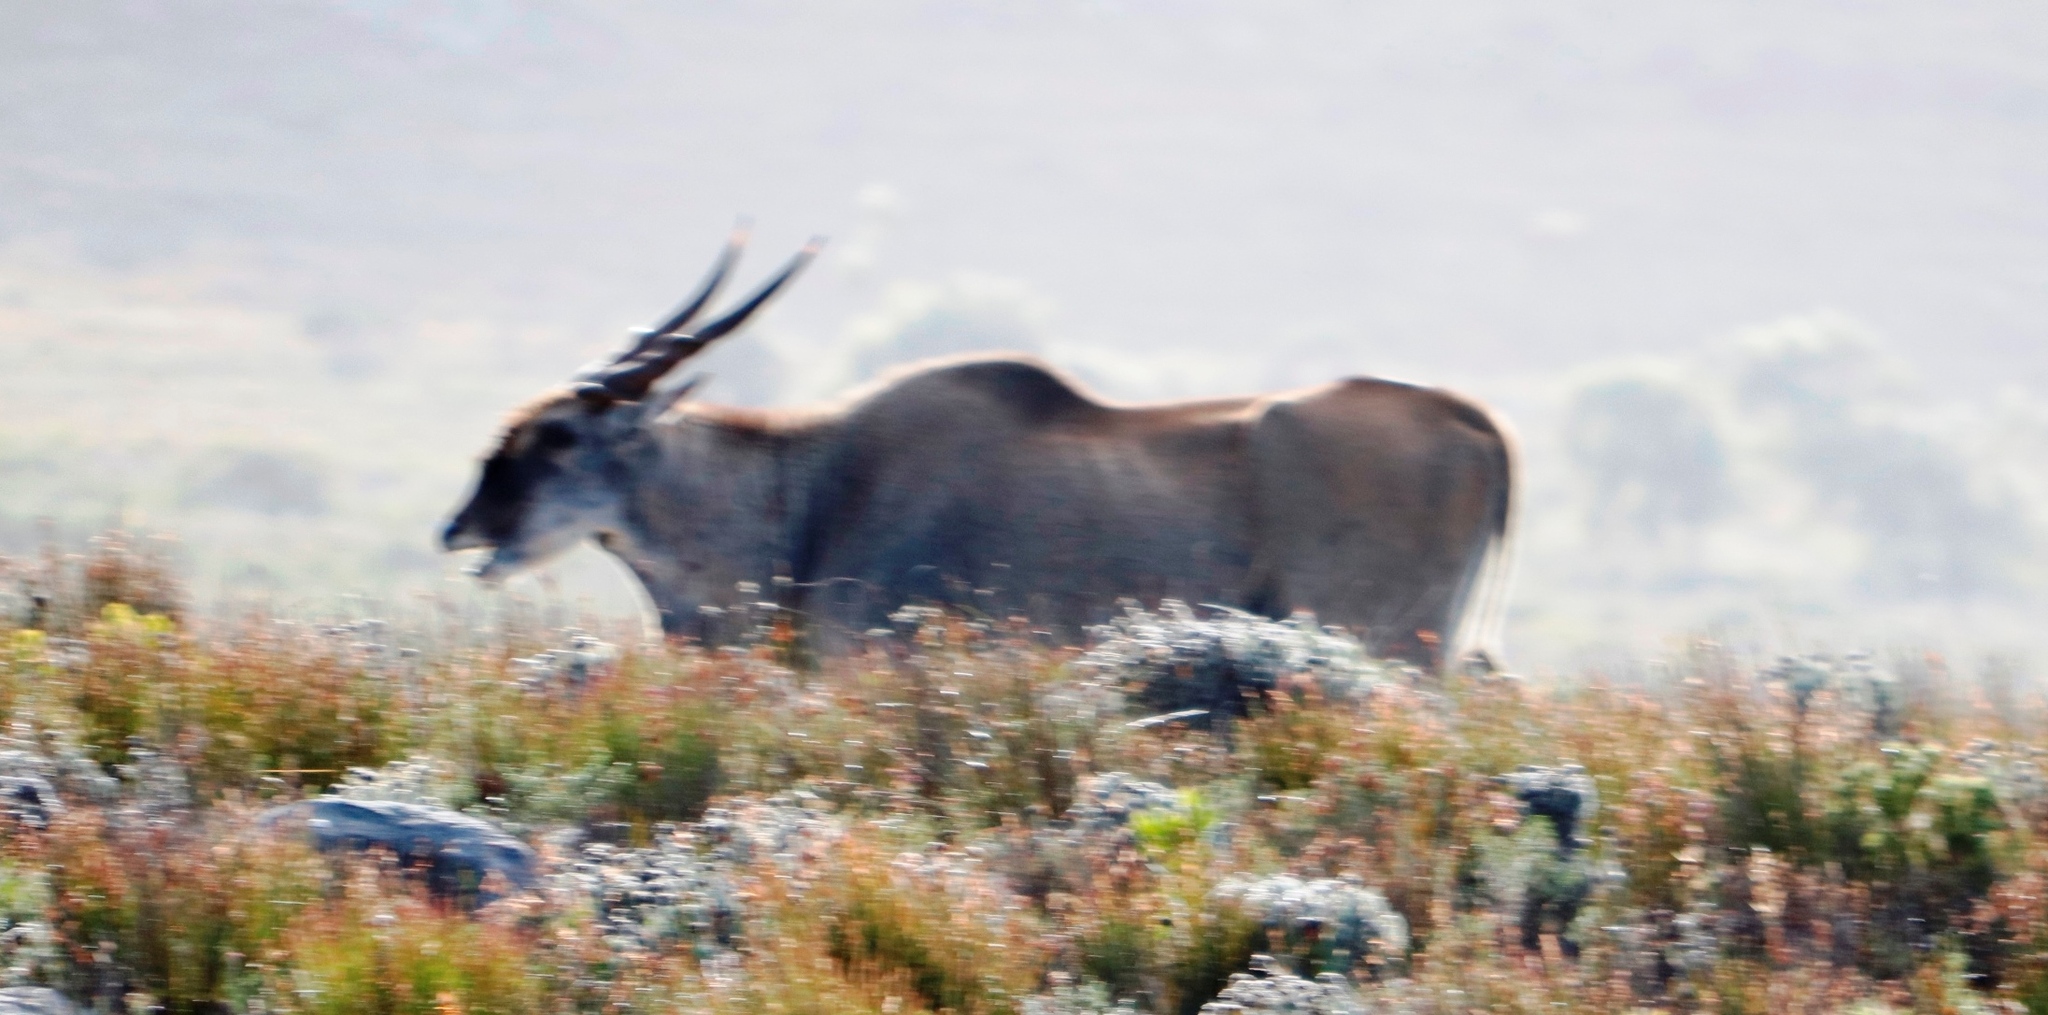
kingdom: Animalia
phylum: Chordata
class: Mammalia
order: Artiodactyla
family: Bovidae
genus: Taurotragus
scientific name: Taurotragus oryx
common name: Common eland
